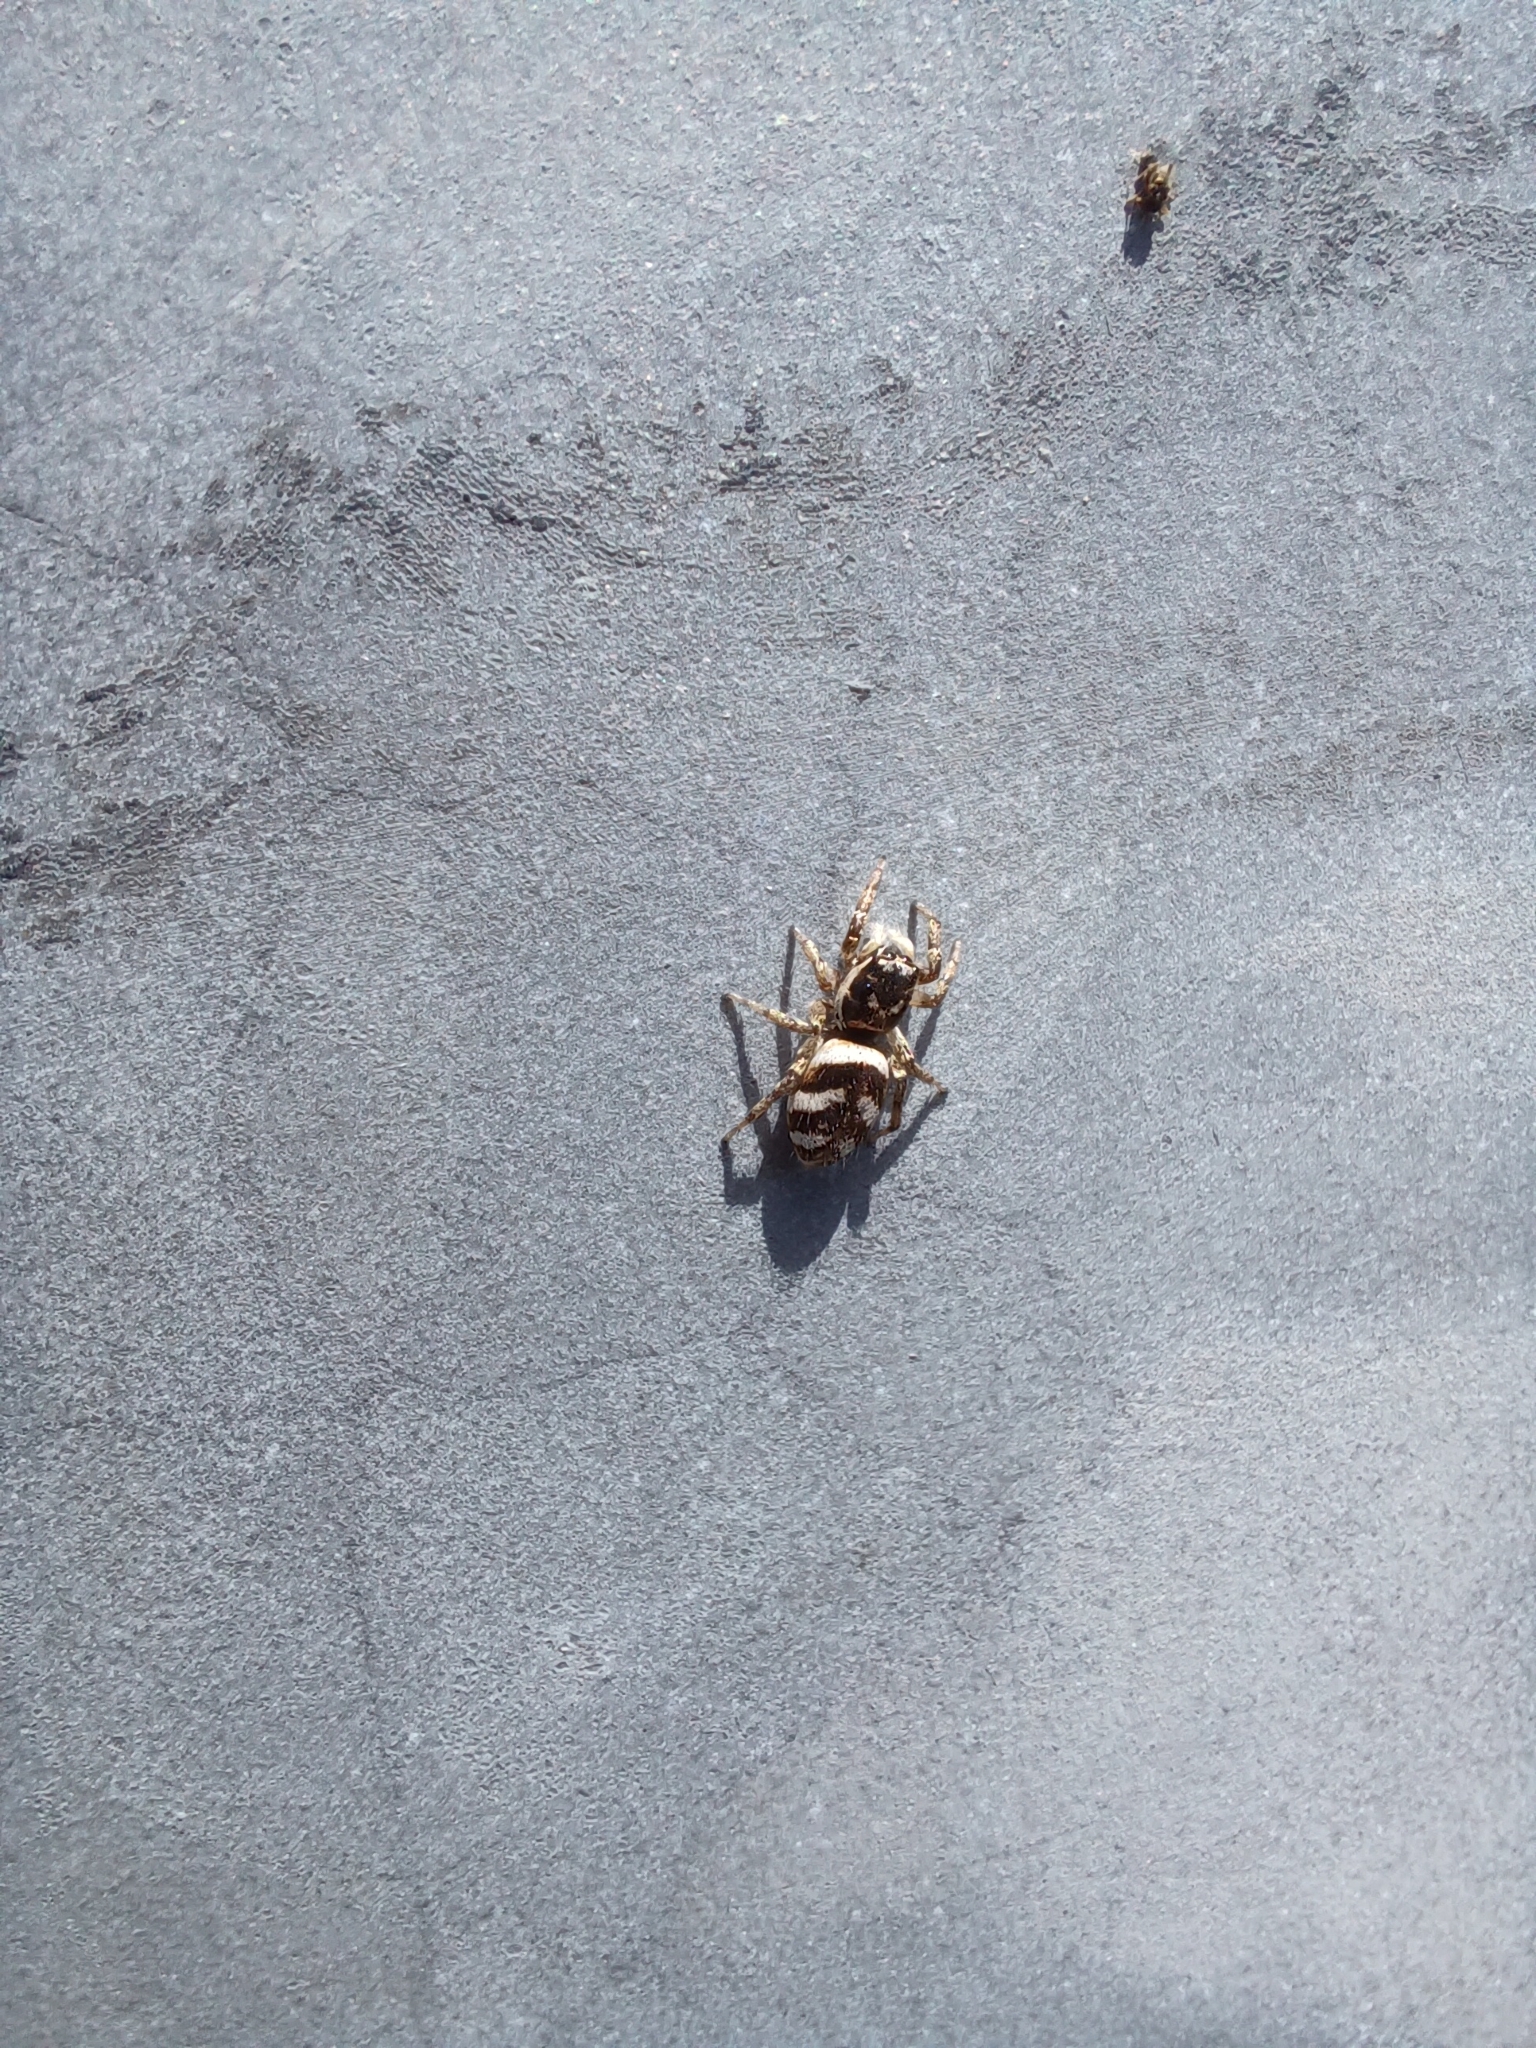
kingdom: Animalia
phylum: Arthropoda
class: Arachnida
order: Araneae
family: Salticidae
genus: Salticus
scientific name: Salticus scenicus
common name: Zebra jumper
